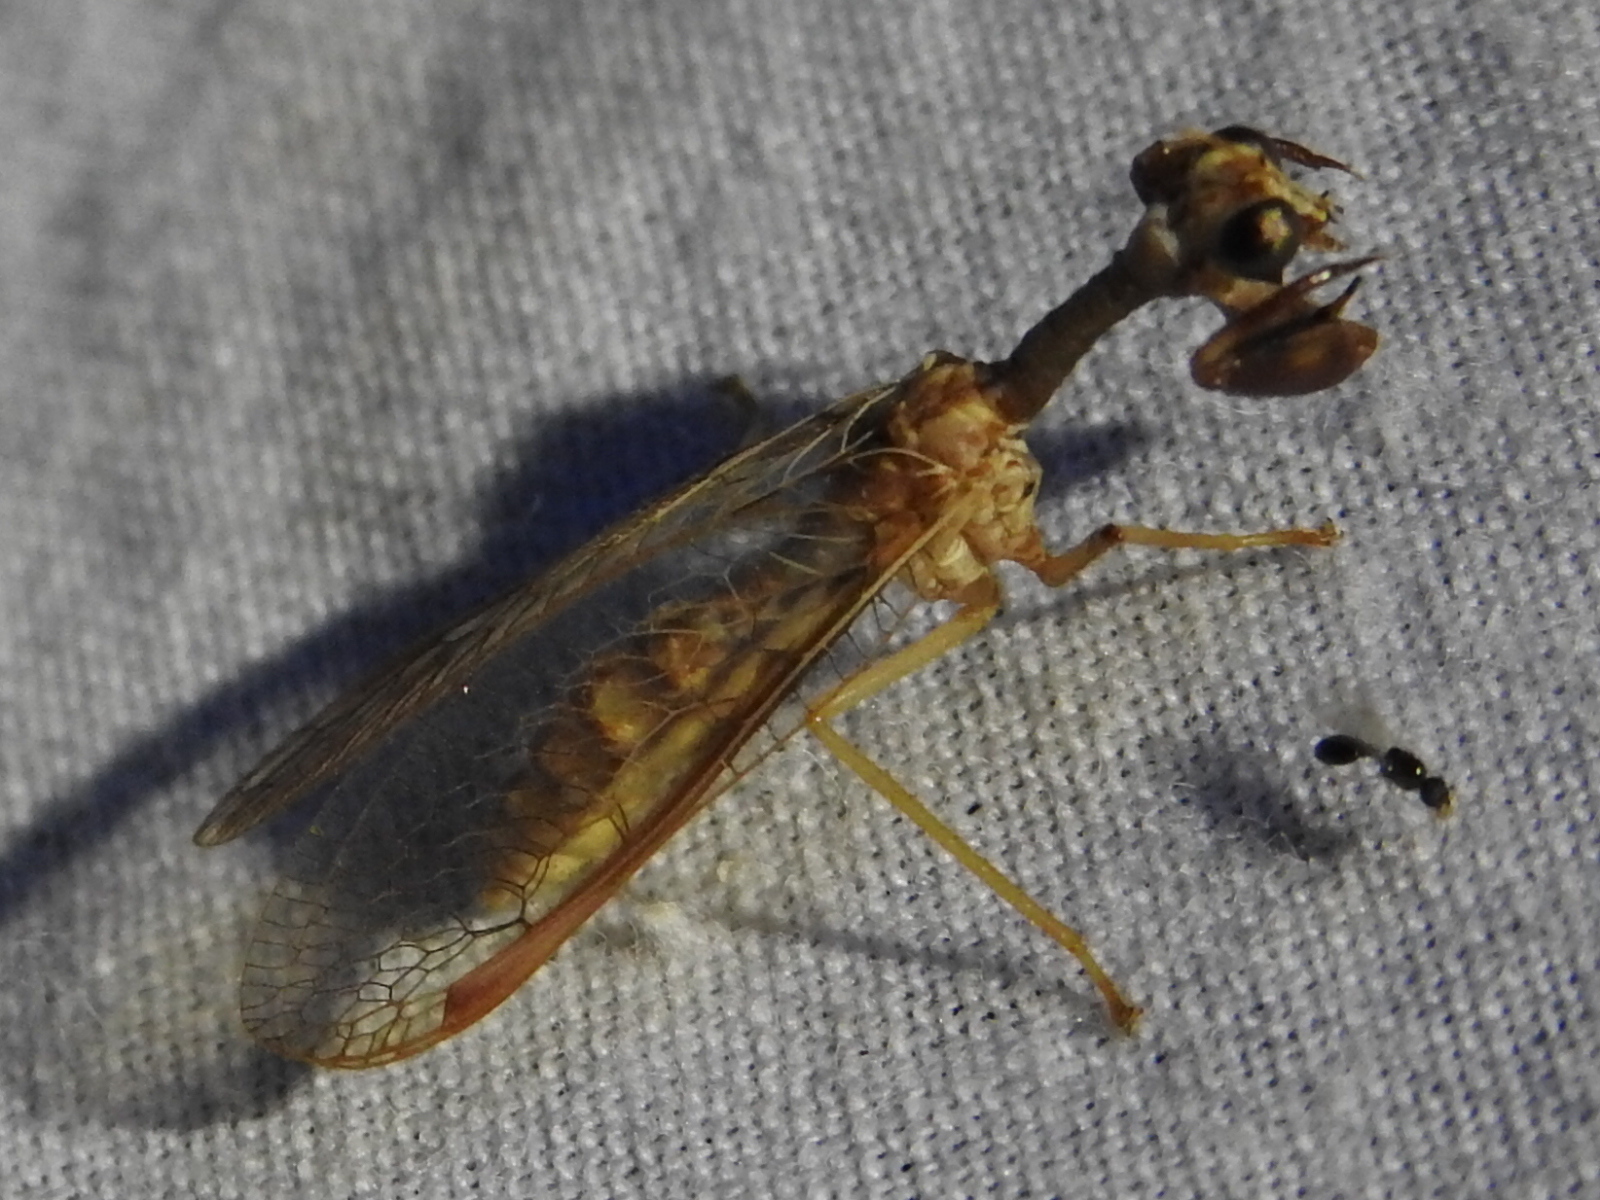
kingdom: Animalia
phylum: Arthropoda
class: Insecta
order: Neuroptera
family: Mantispidae
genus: Dicromantispa
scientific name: Dicromantispa sayi
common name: Say's mantidfly
